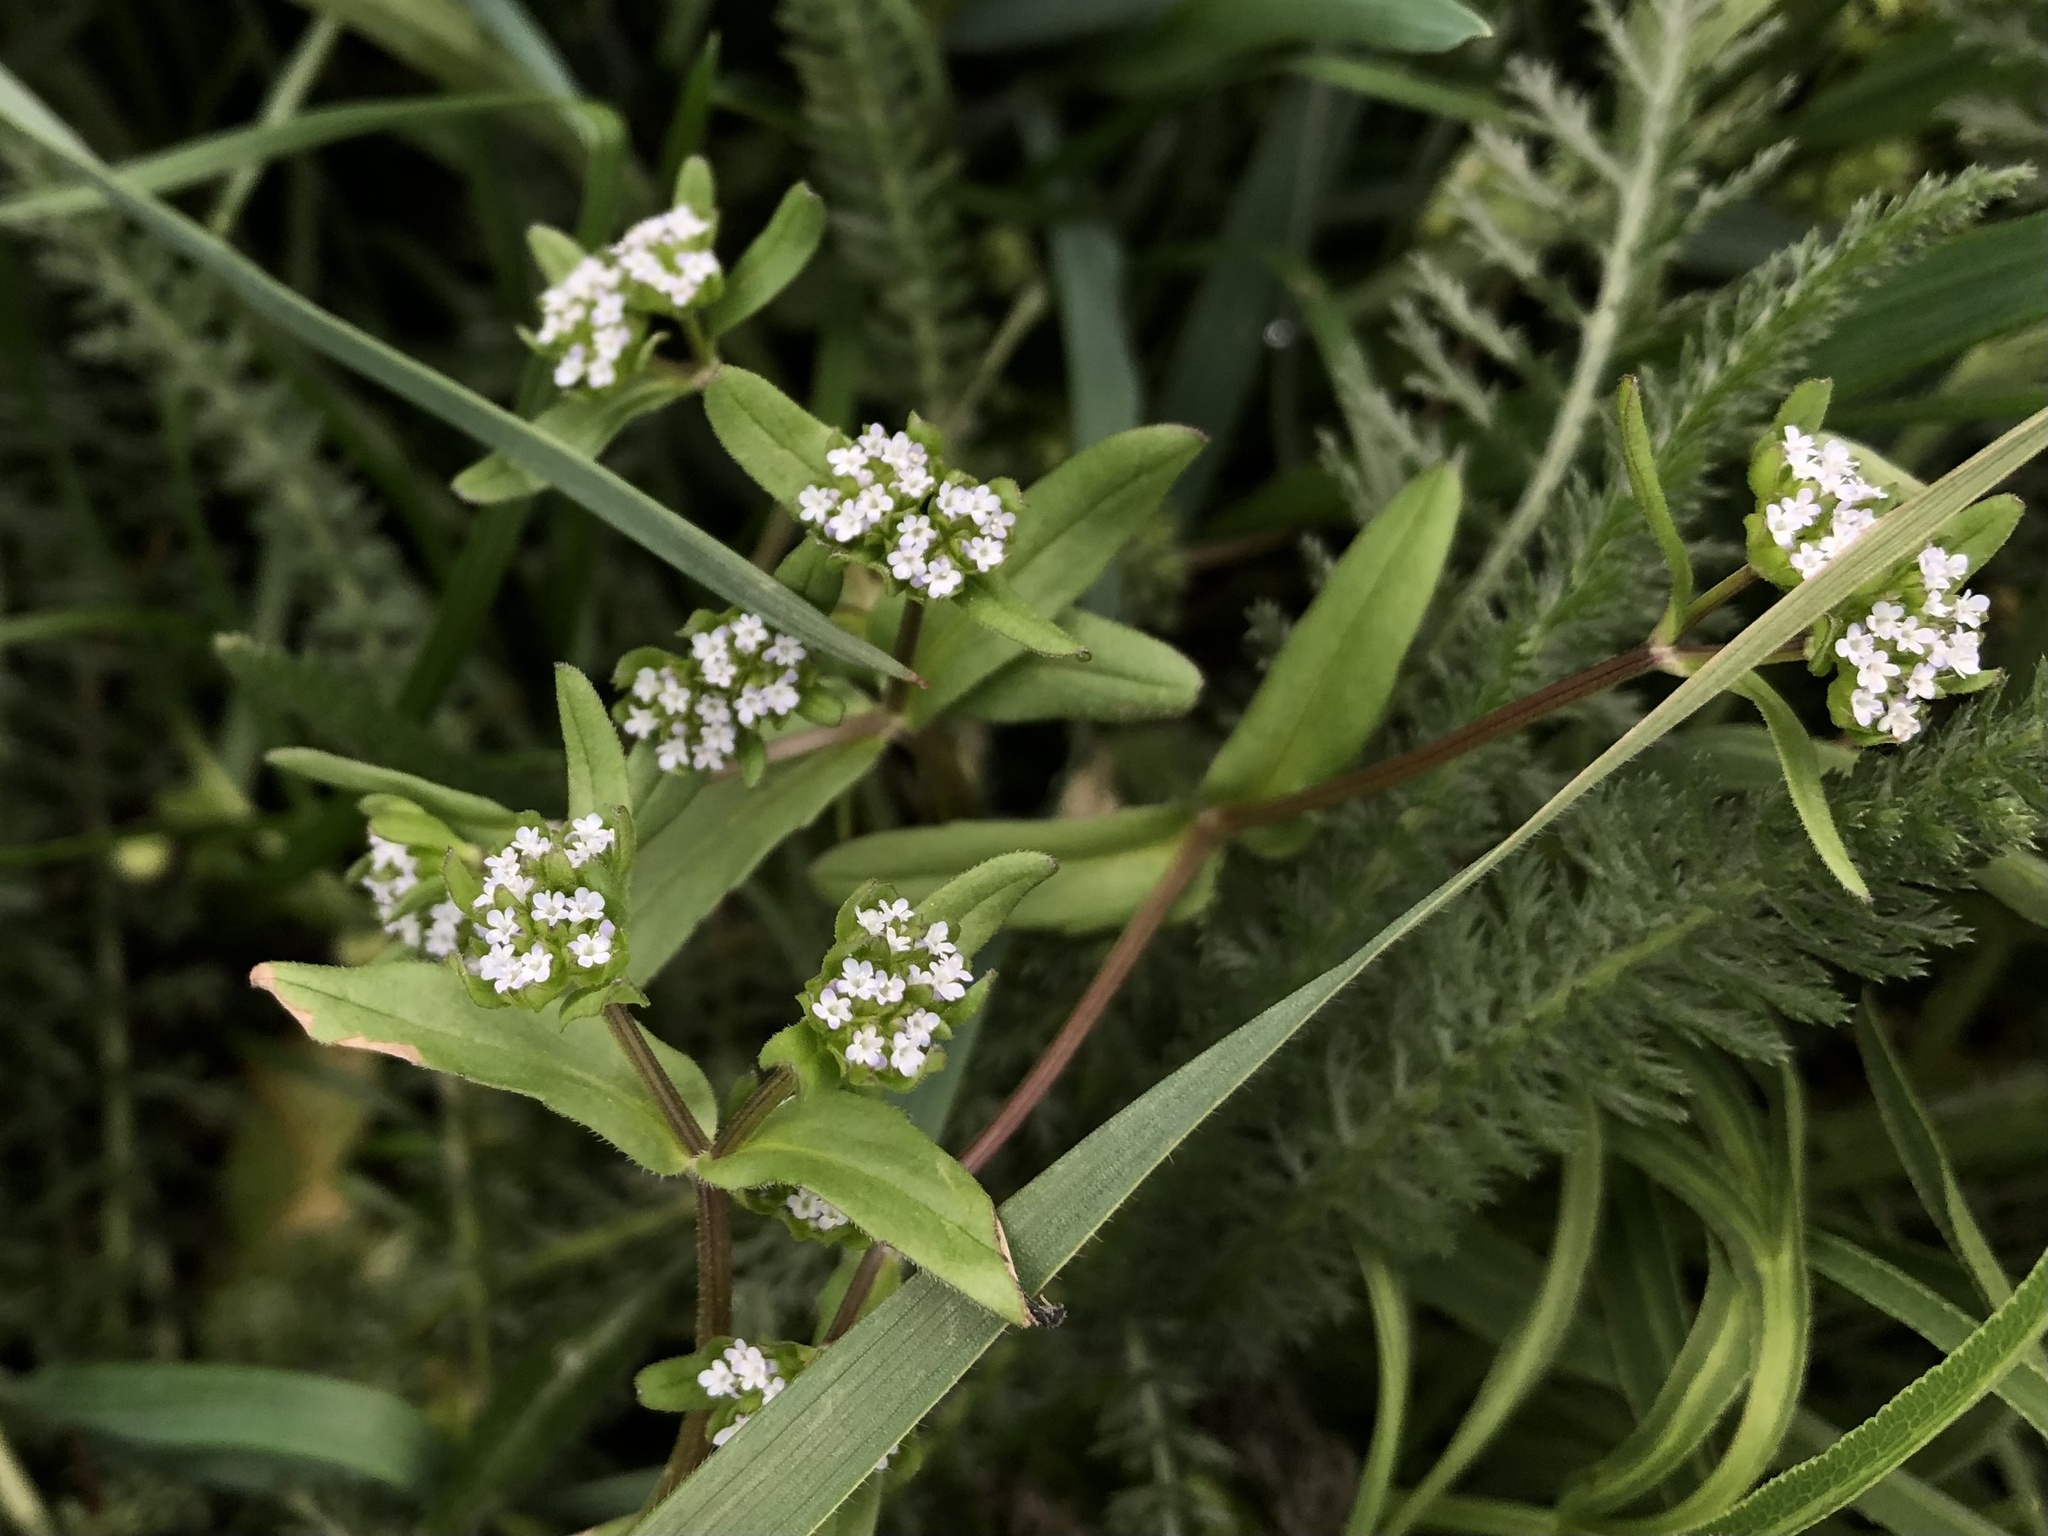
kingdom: Plantae
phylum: Tracheophyta
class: Magnoliopsida
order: Dipsacales
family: Caprifoliaceae
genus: Valerianella
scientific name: Valerianella locusta
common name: Common cornsalad
